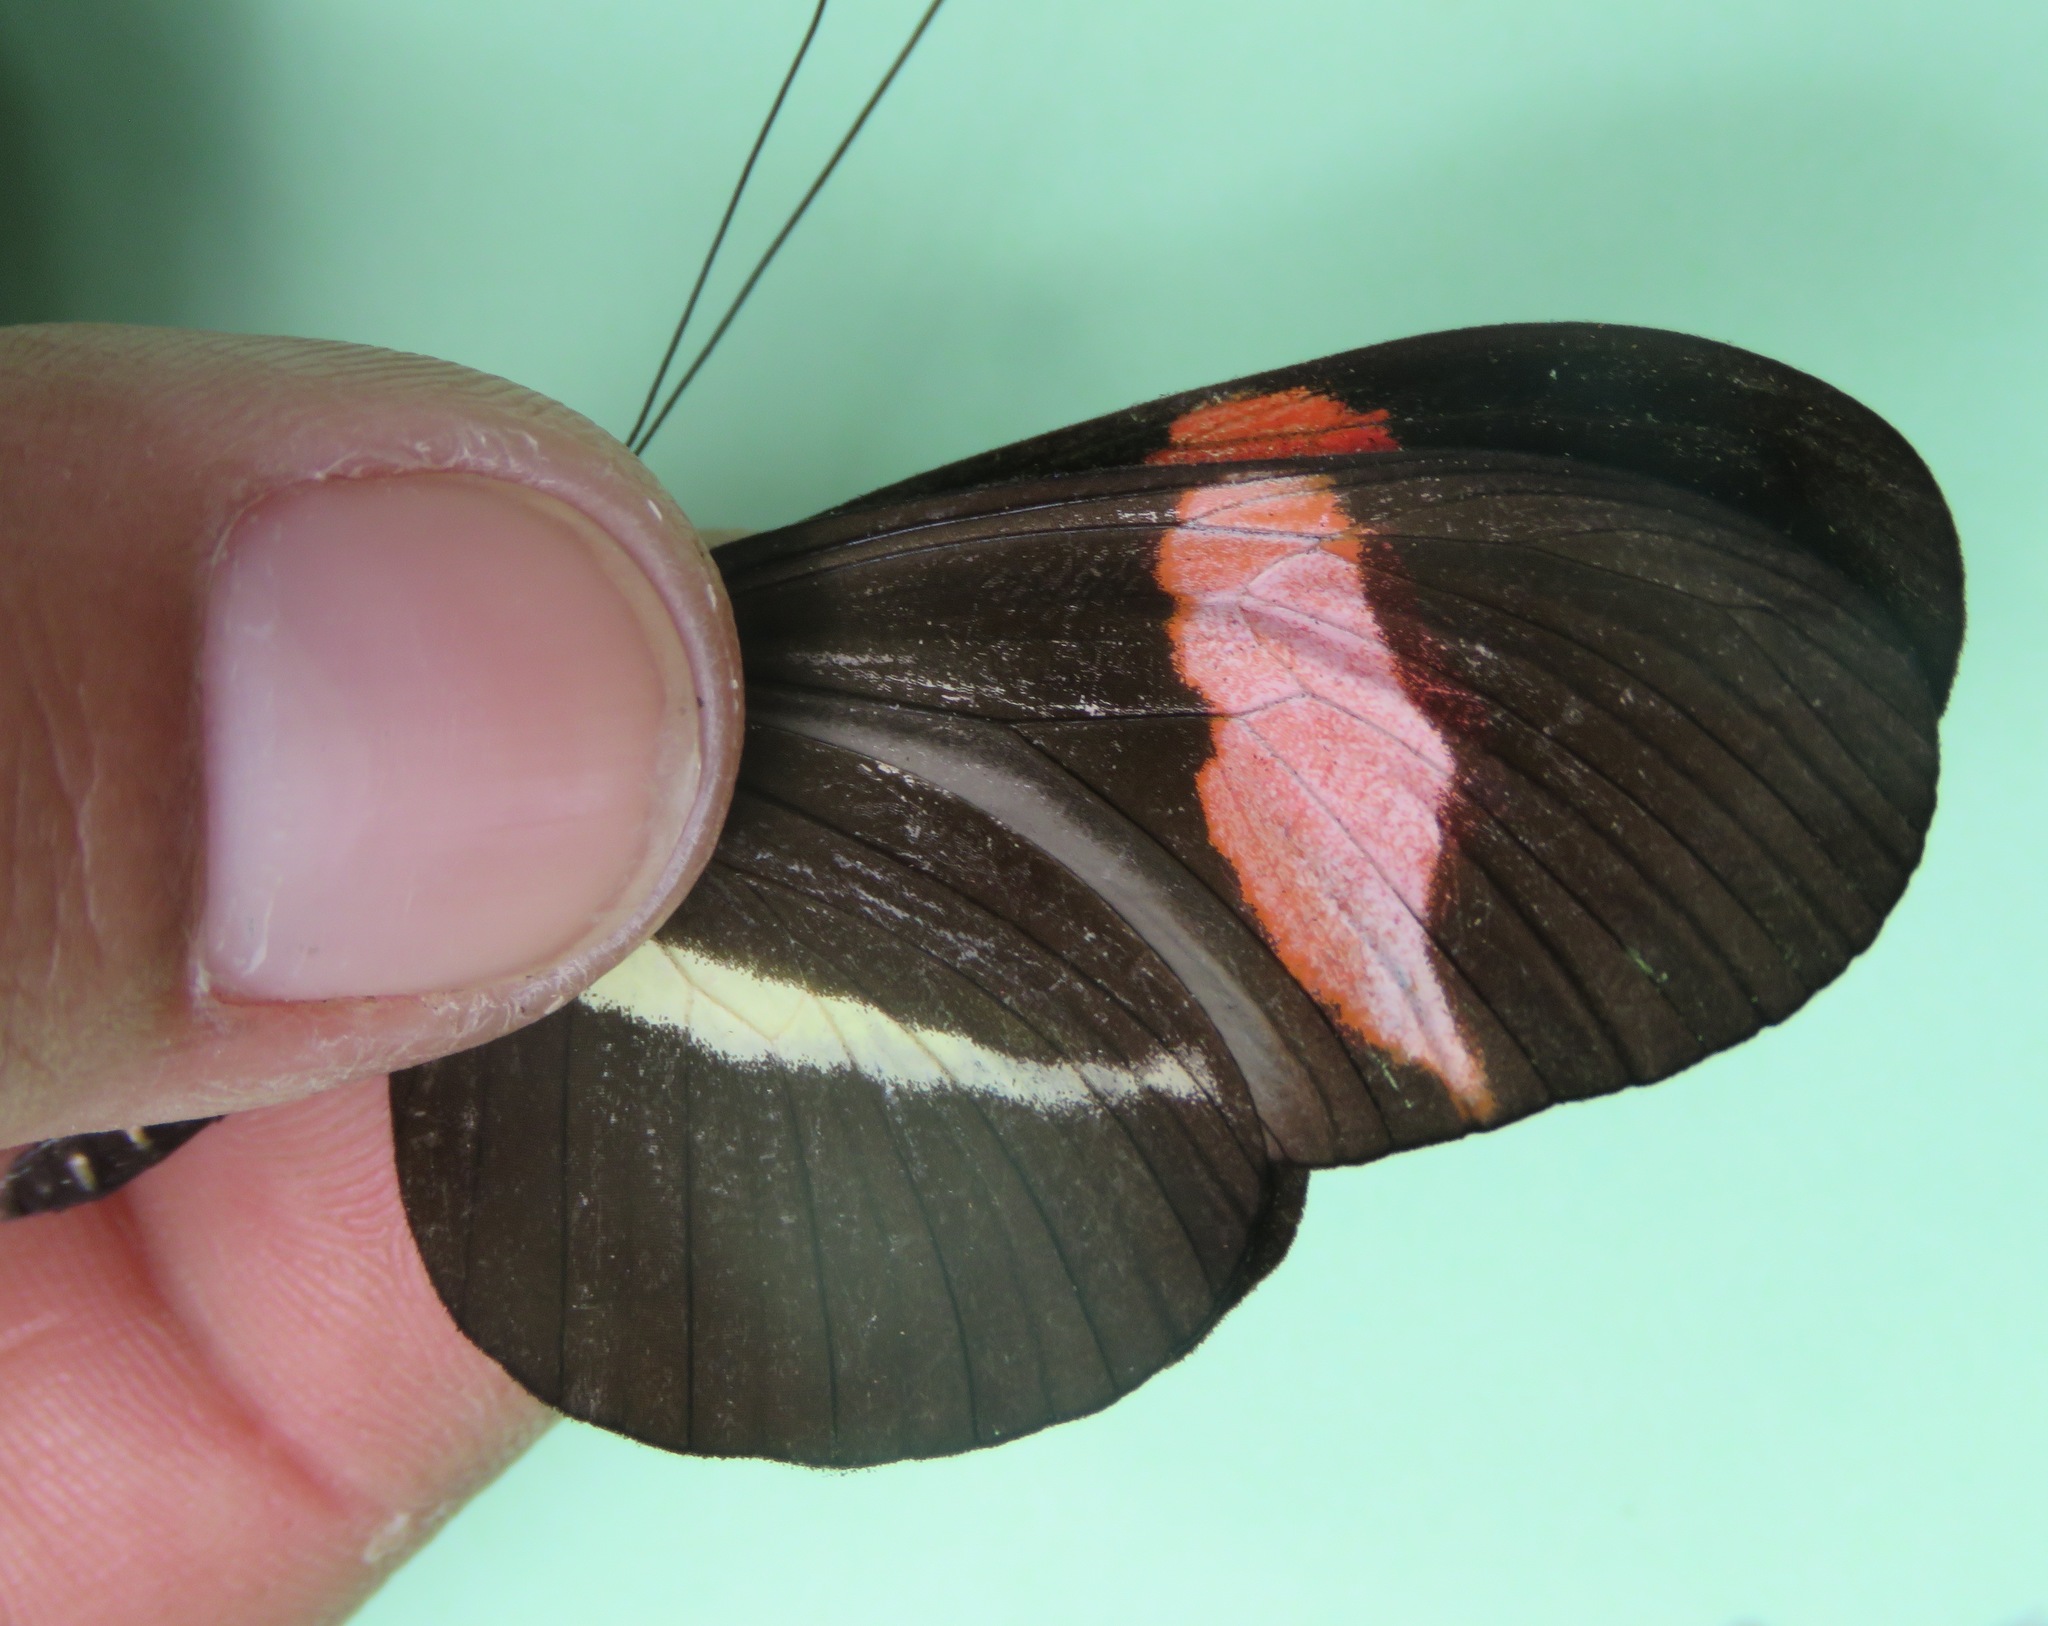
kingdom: Animalia
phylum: Arthropoda
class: Insecta
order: Lepidoptera
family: Nymphalidae
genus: Tirumala
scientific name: Tirumala petiverana
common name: Blue monarch
